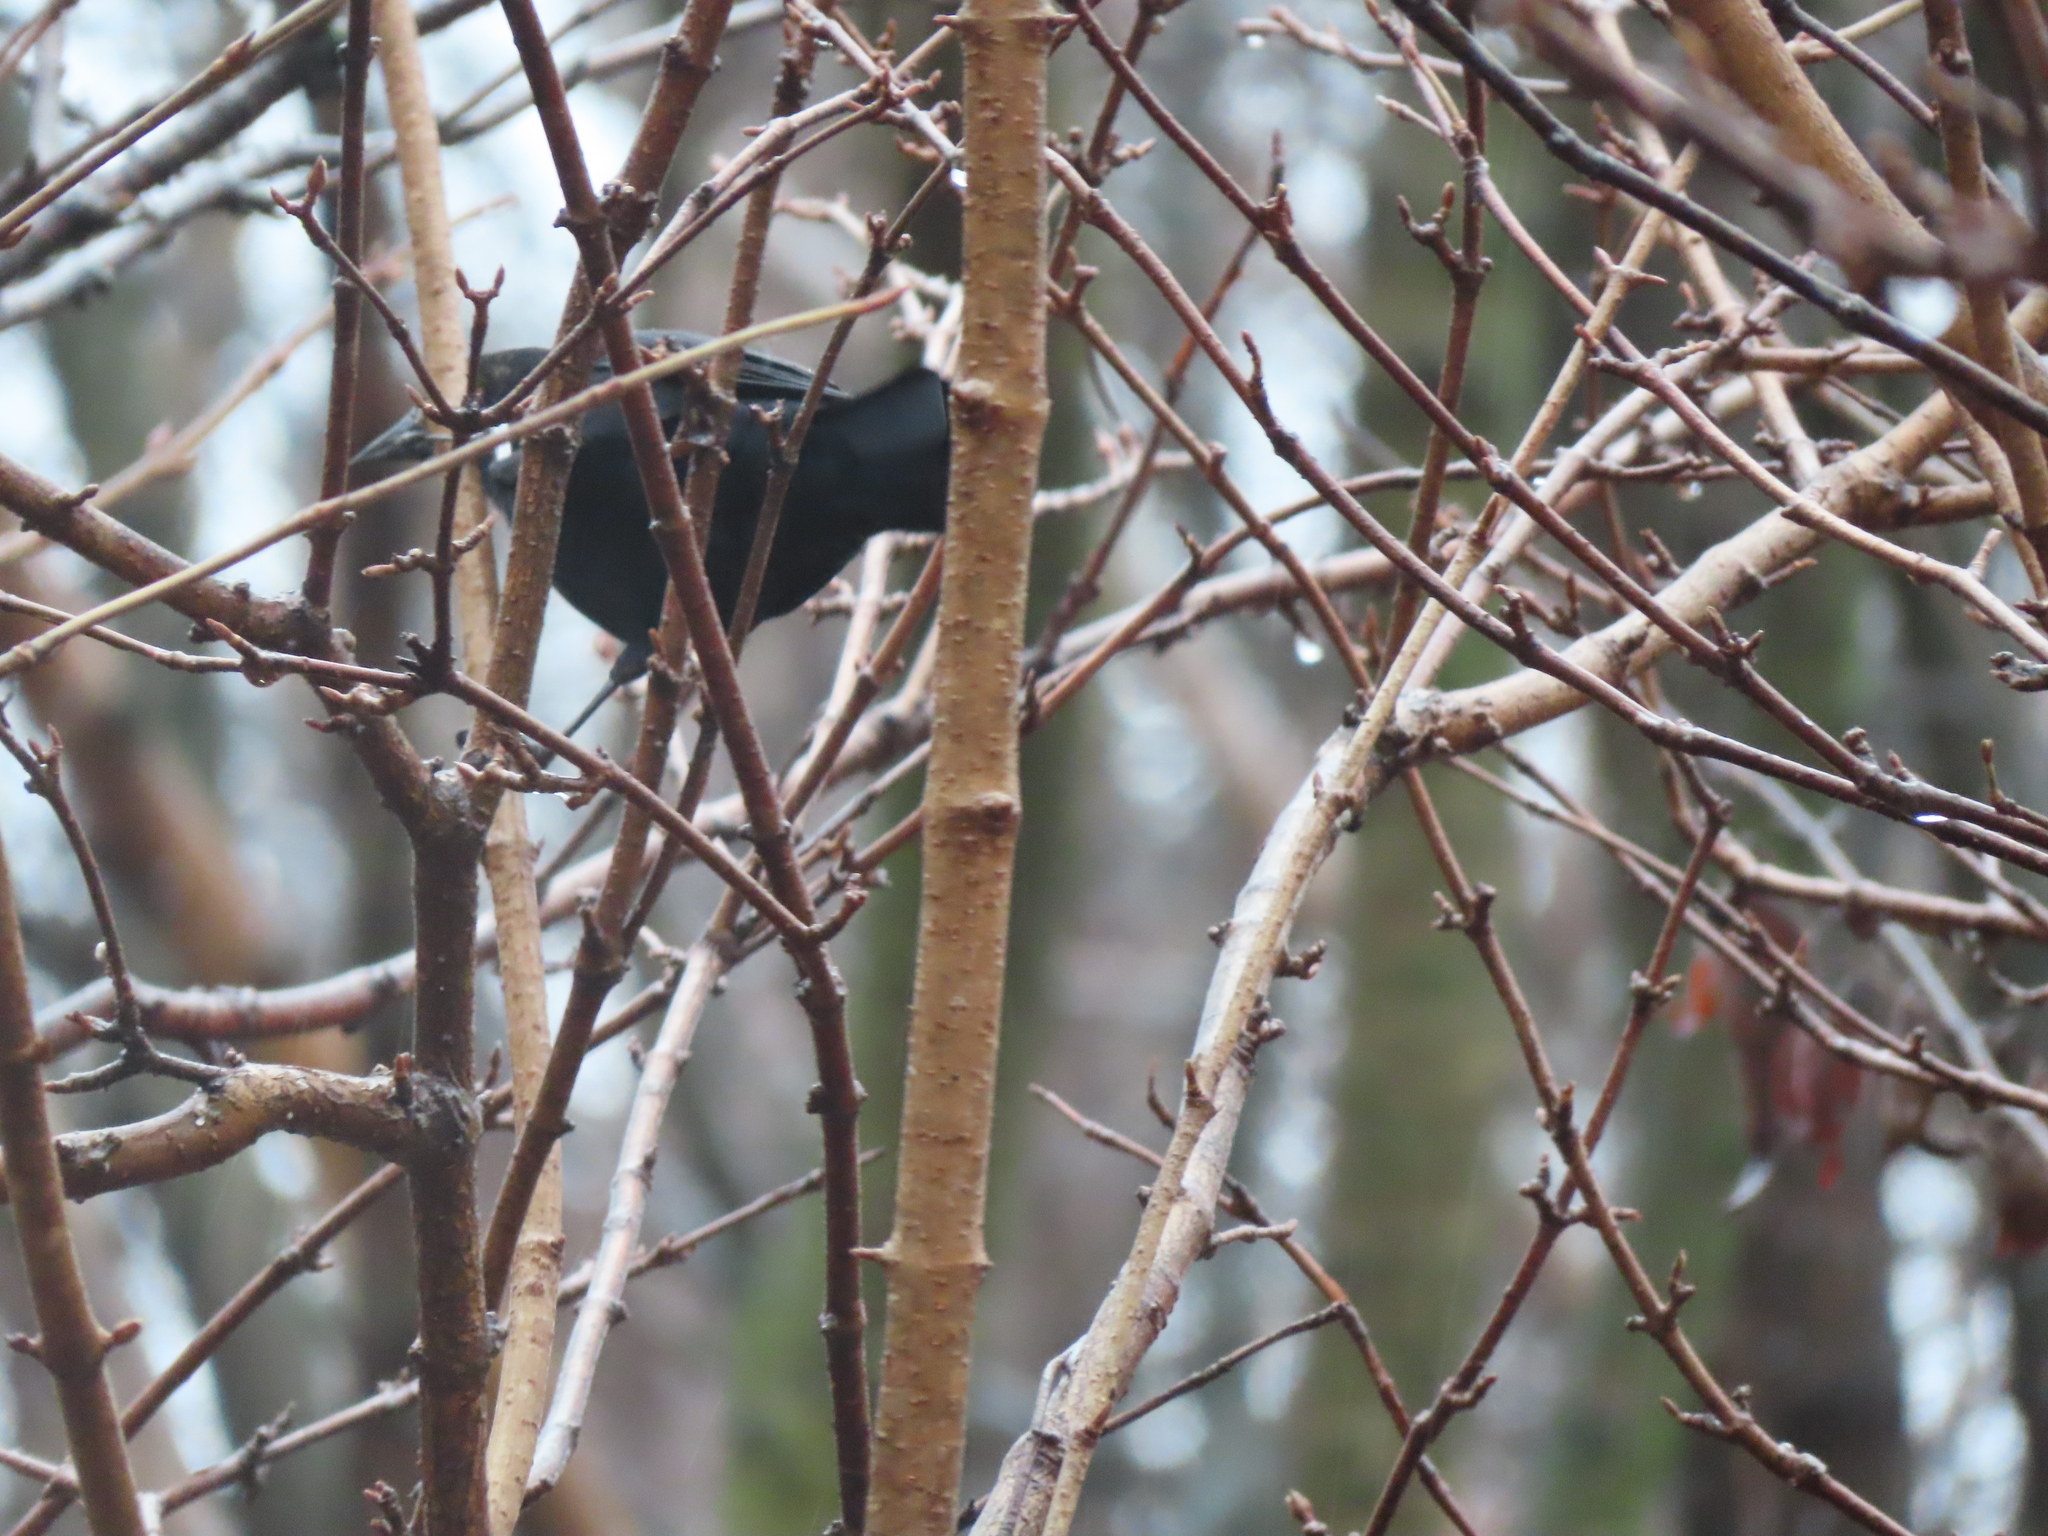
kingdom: Animalia
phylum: Chordata
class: Aves
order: Passeriformes
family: Icteridae
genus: Agelaius
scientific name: Agelaius phoeniceus
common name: Red-winged blackbird
